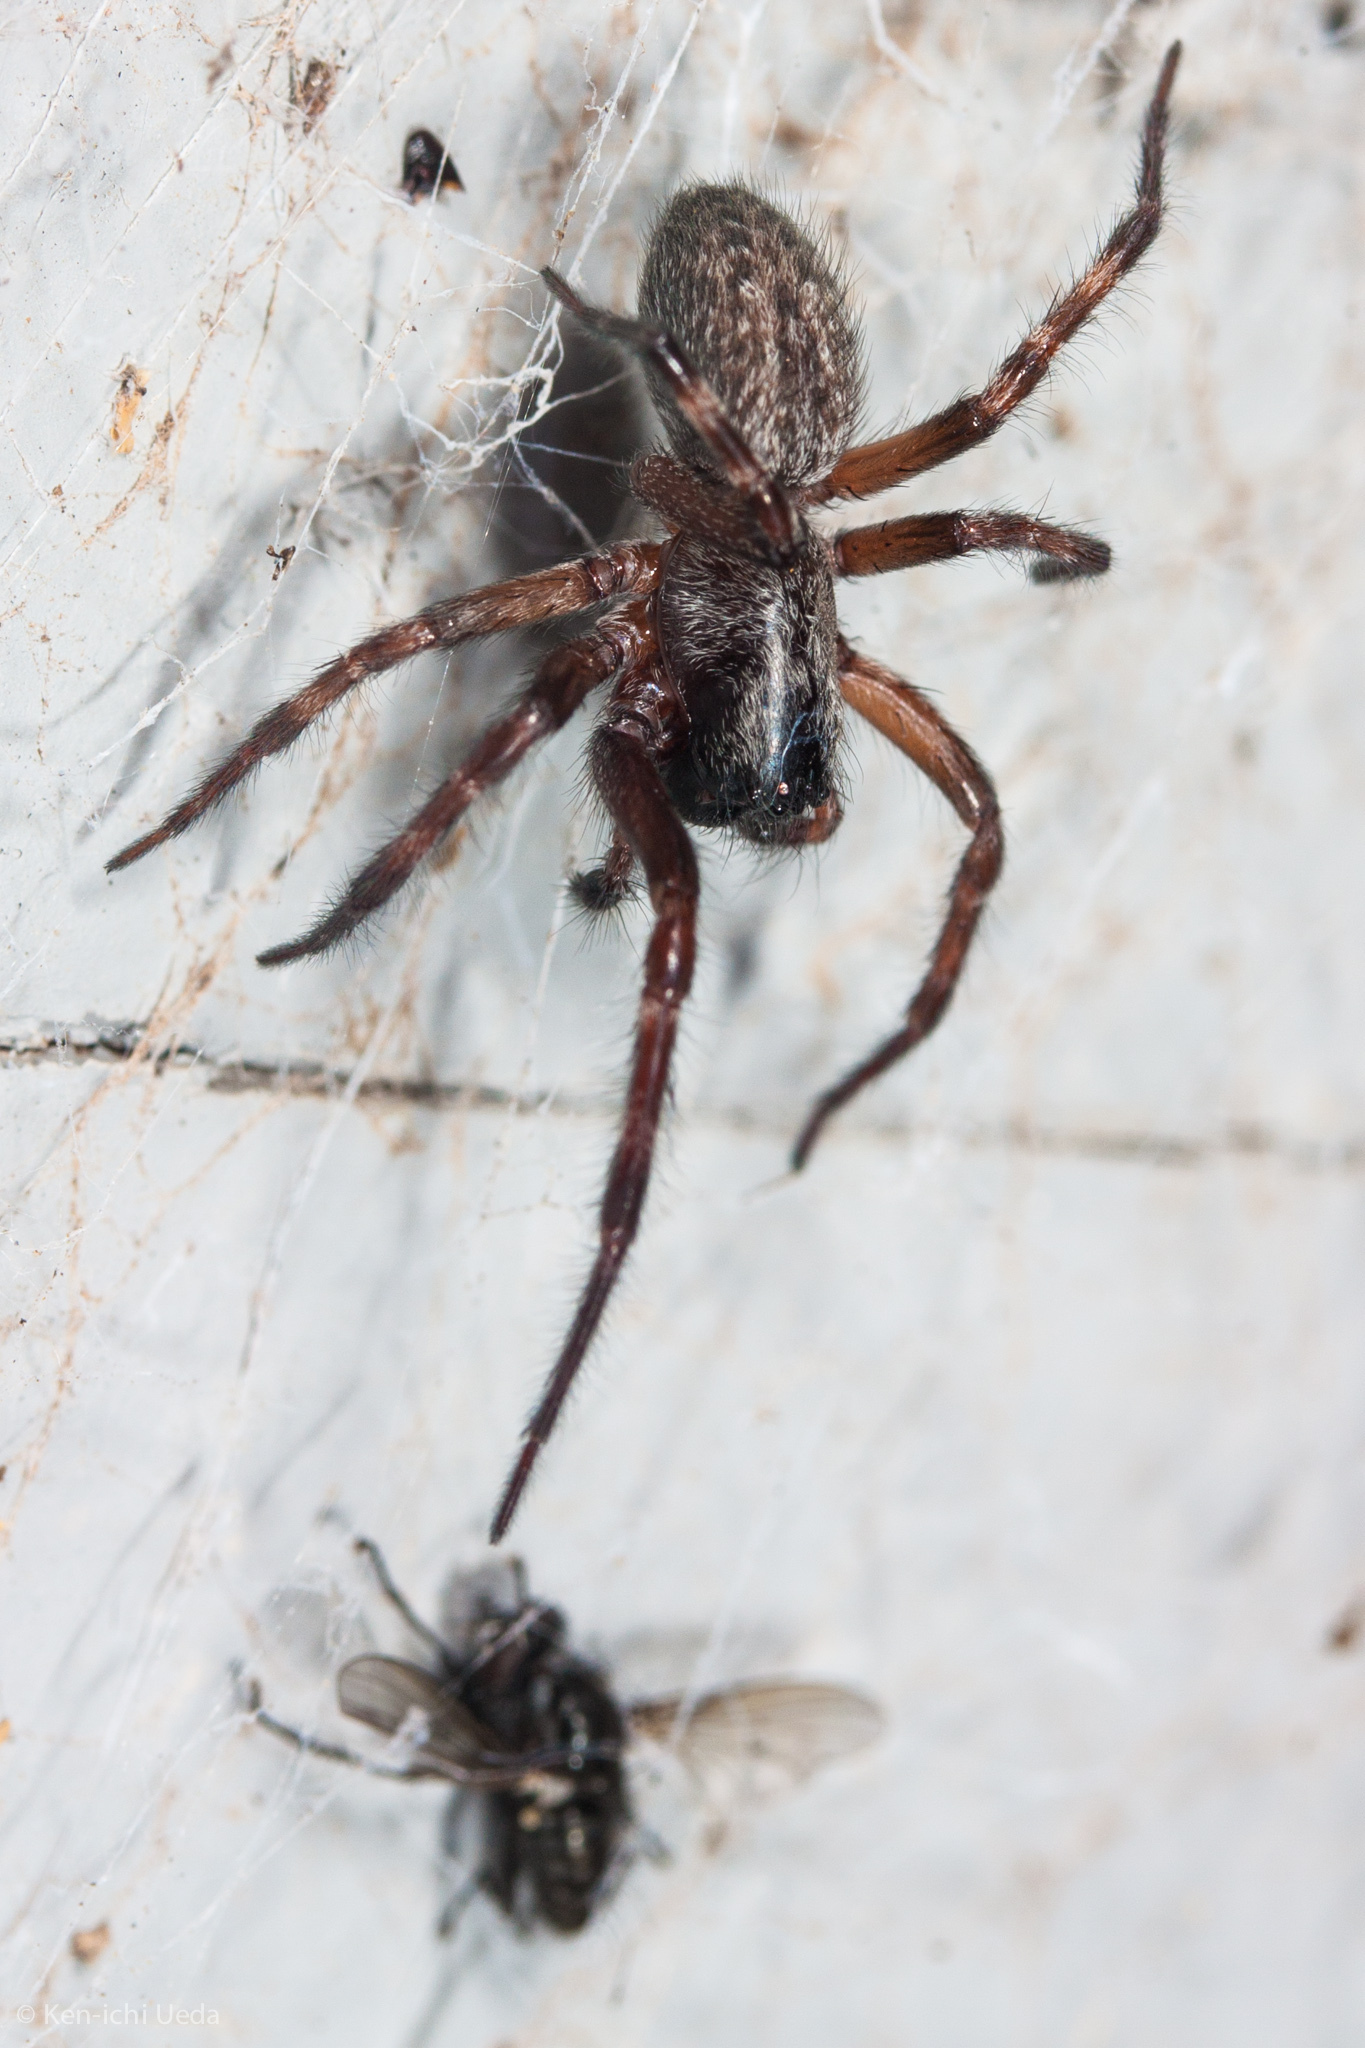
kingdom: Animalia
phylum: Arthropoda
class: Arachnida
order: Araneae
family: Desidae
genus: Badumna
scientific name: Badumna longinqua
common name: Gray house spider
